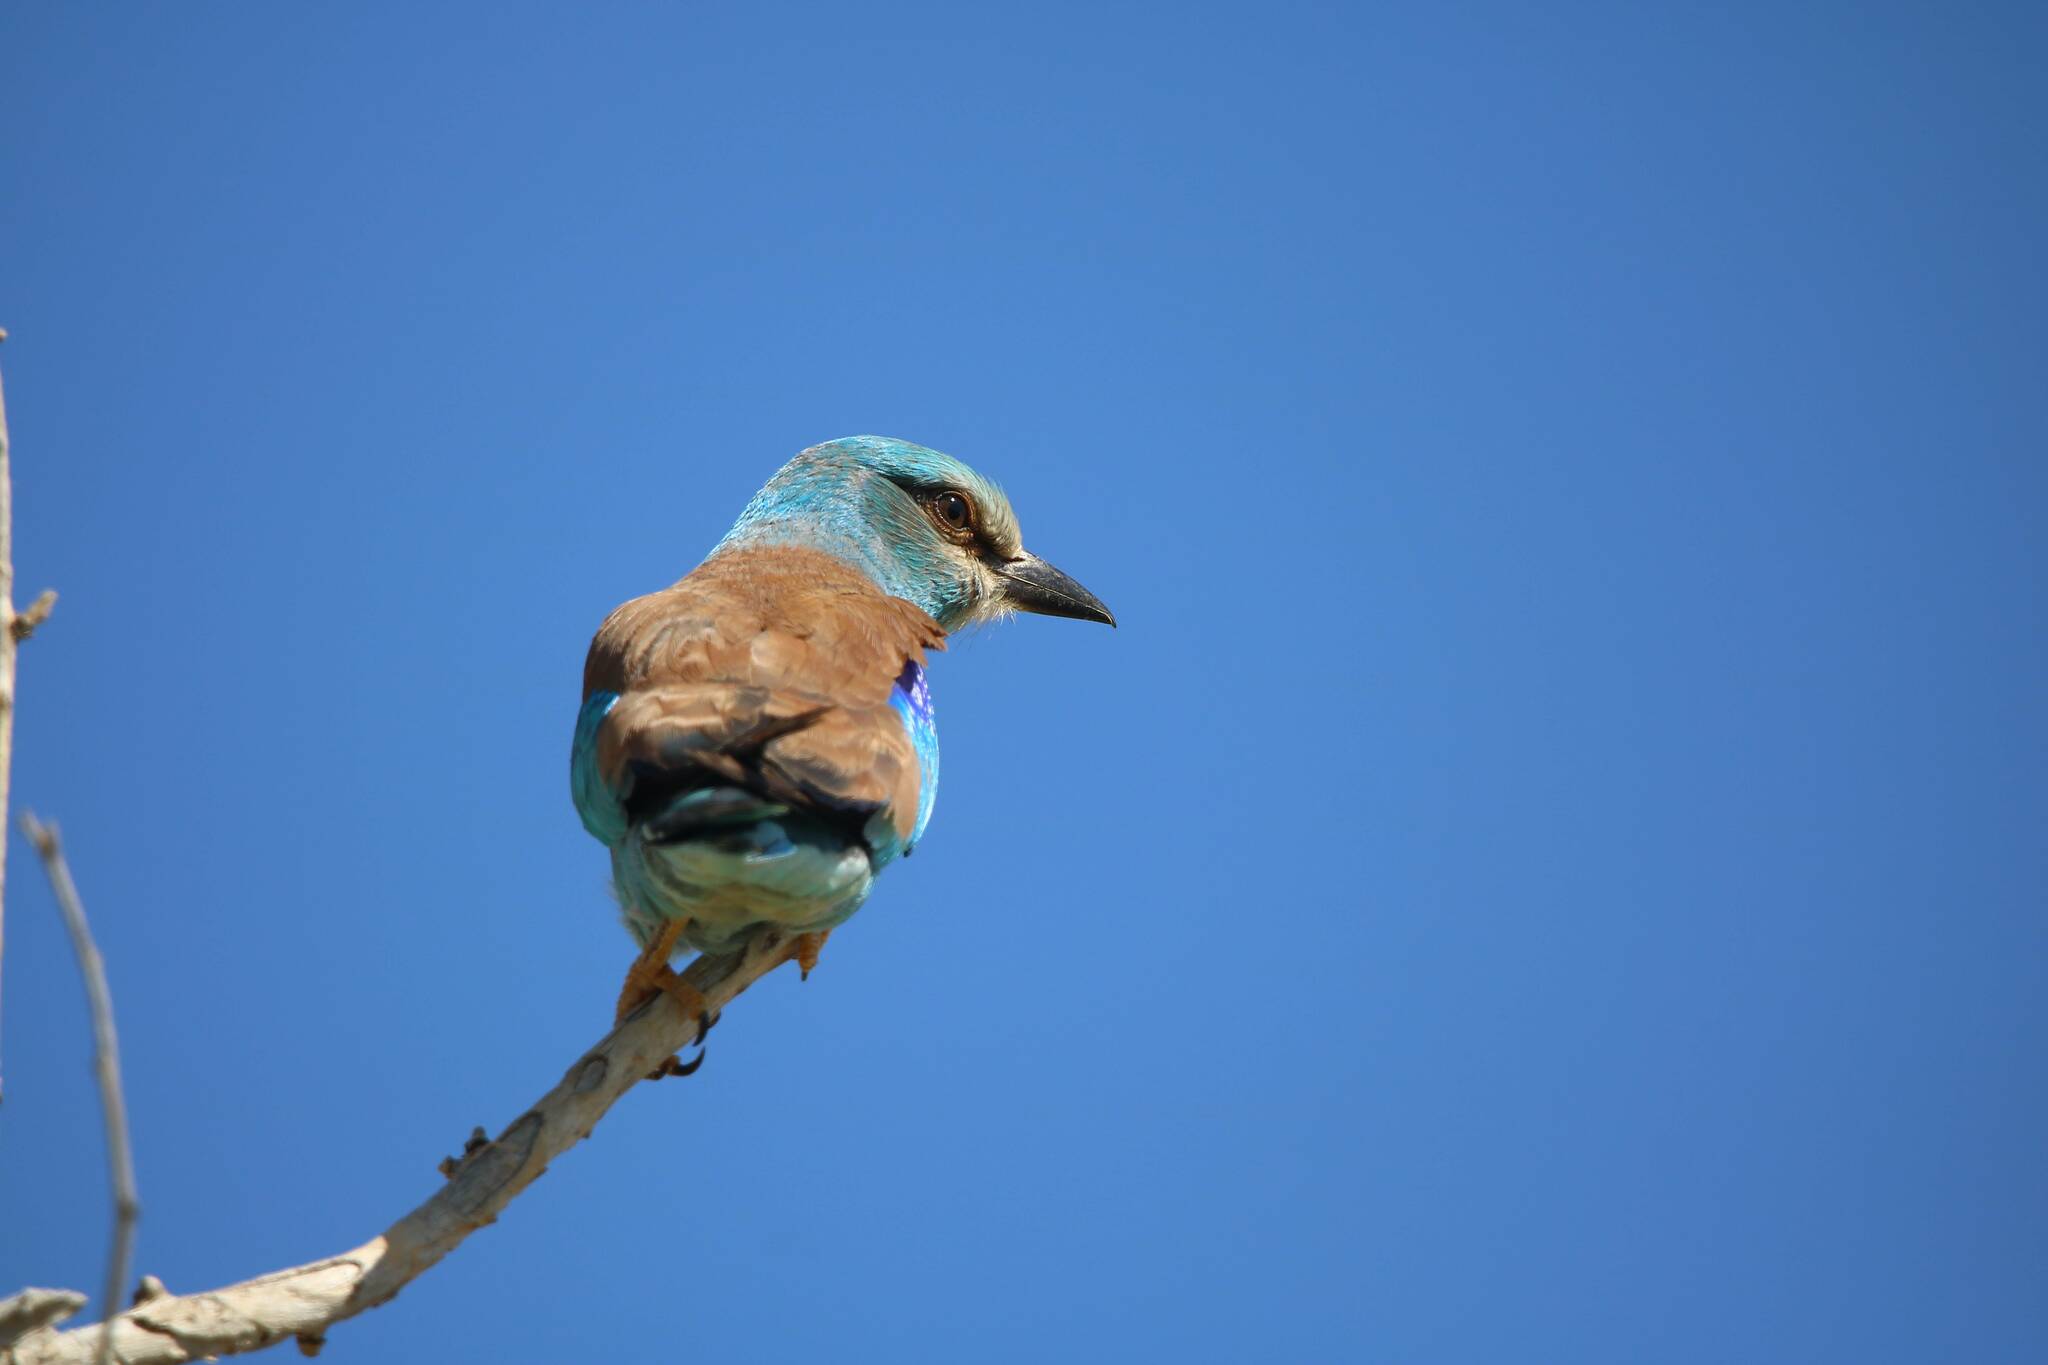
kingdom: Animalia
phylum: Chordata
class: Aves
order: Coraciiformes
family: Coraciidae
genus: Coracias
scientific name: Coracias garrulus
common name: European roller
